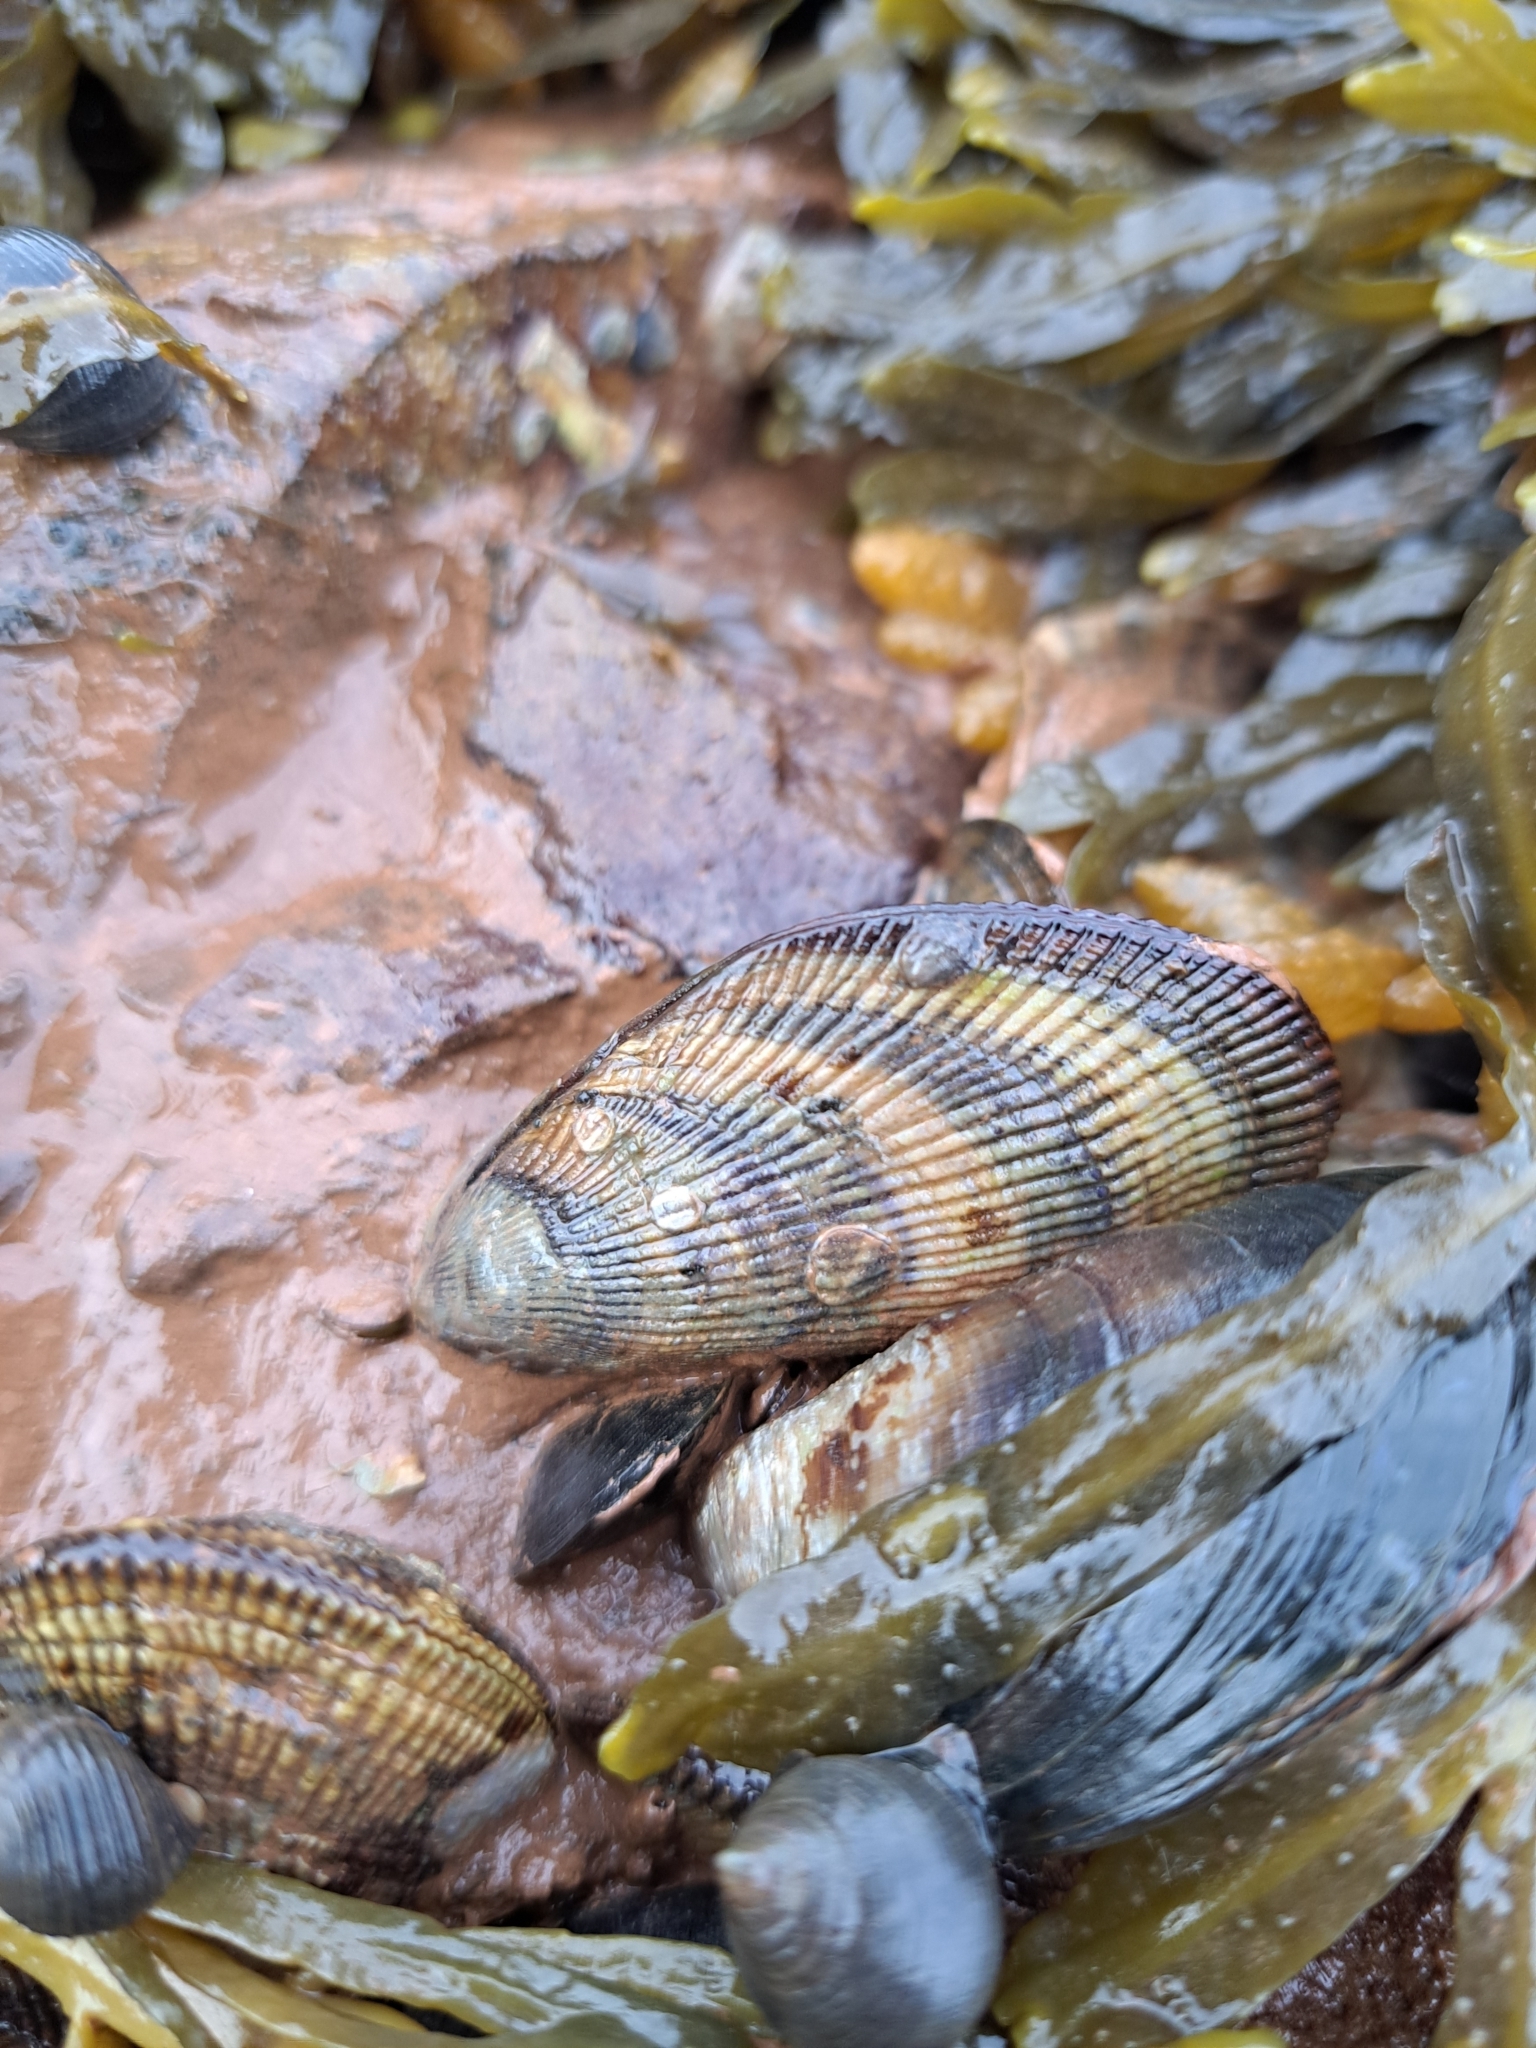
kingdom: Animalia
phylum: Mollusca
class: Bivalvia
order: Mytilida
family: Mytilidae
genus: Geukensia
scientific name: Geukensia demissa
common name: Ribbed mussel
